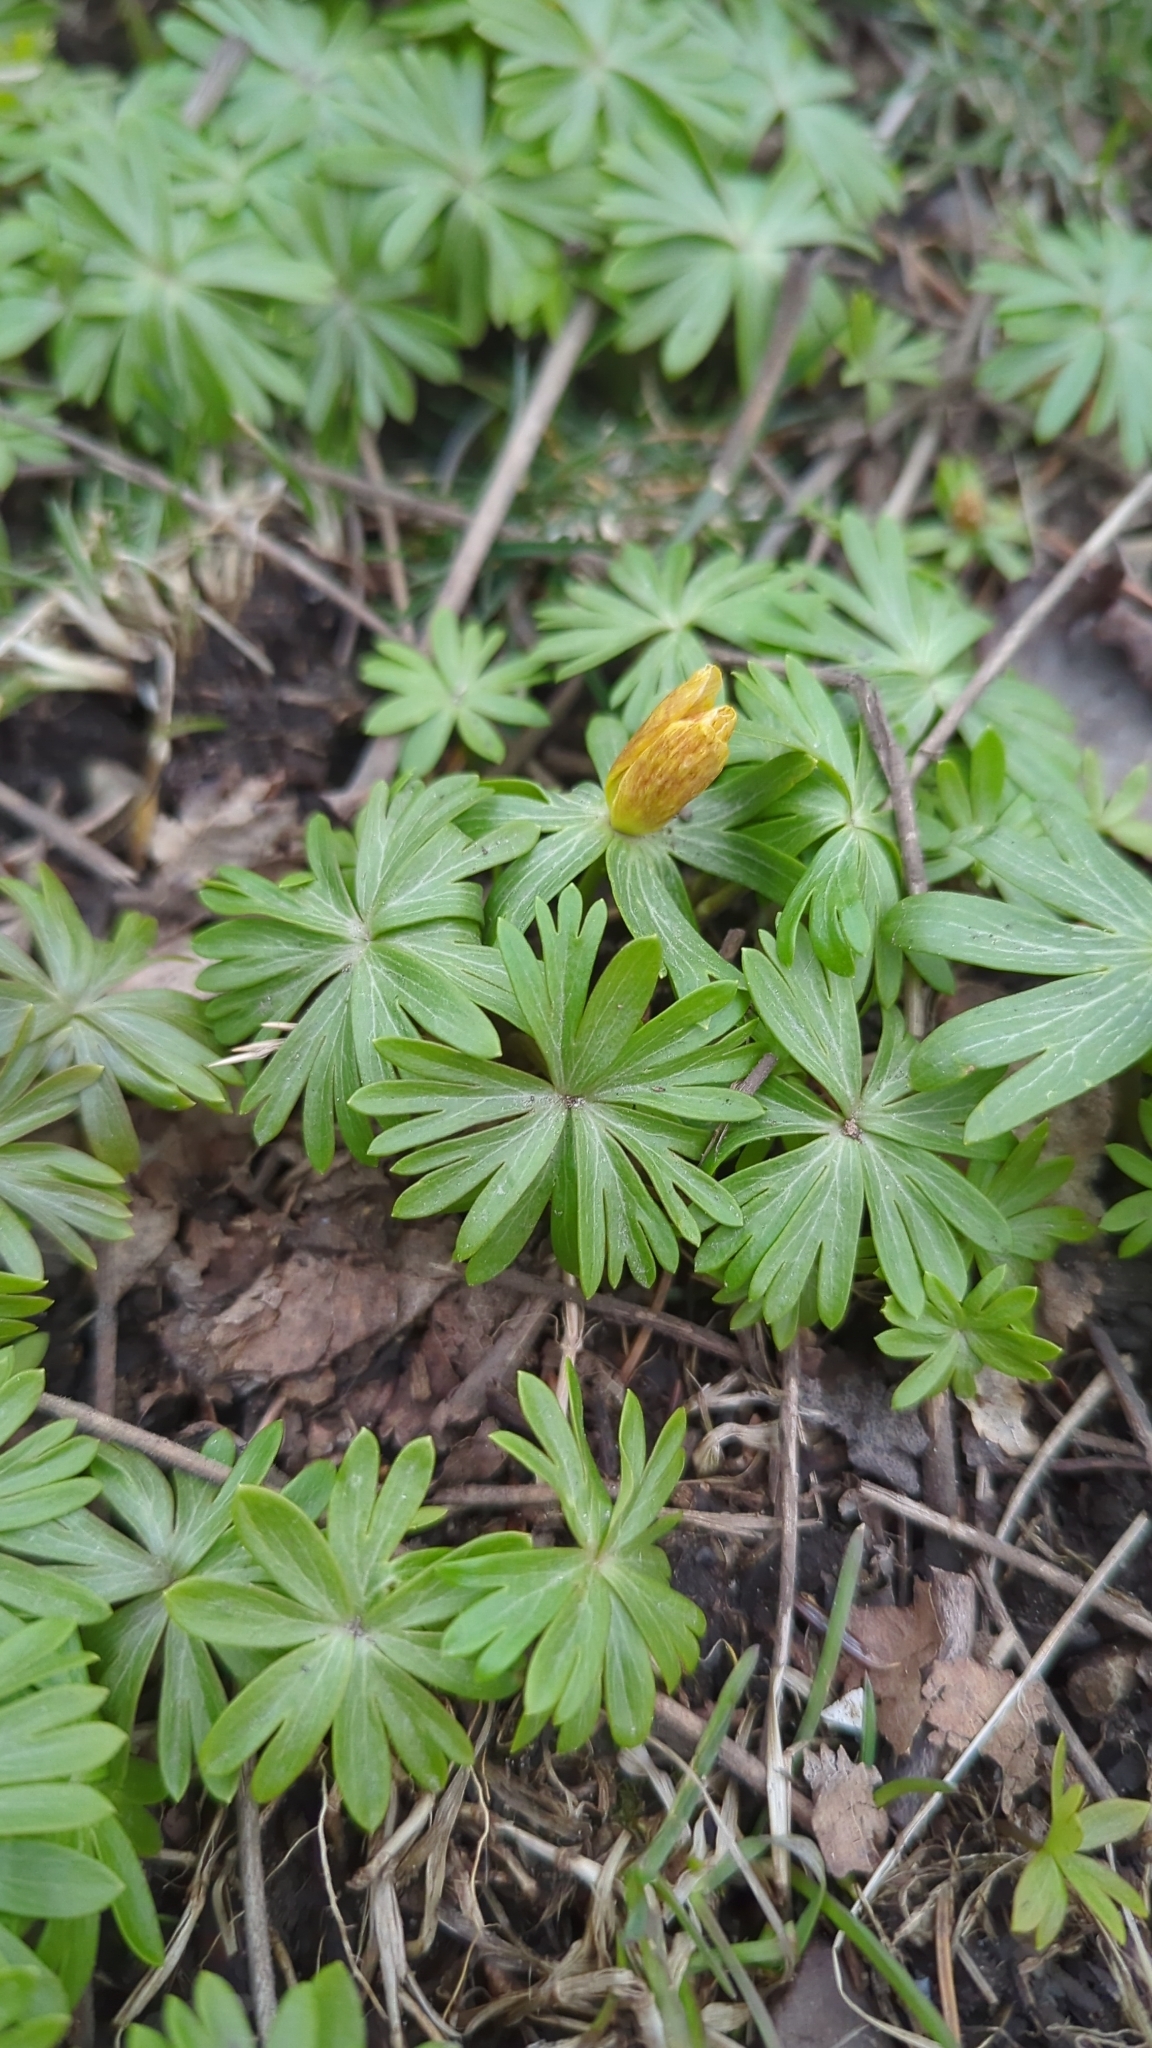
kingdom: Plantae
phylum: Tracheophyta
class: Magnoliopsida
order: Ranunculales
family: Ranunculaceae
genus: Eranthis
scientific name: Eranthis hyemalis
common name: Winter aconite
